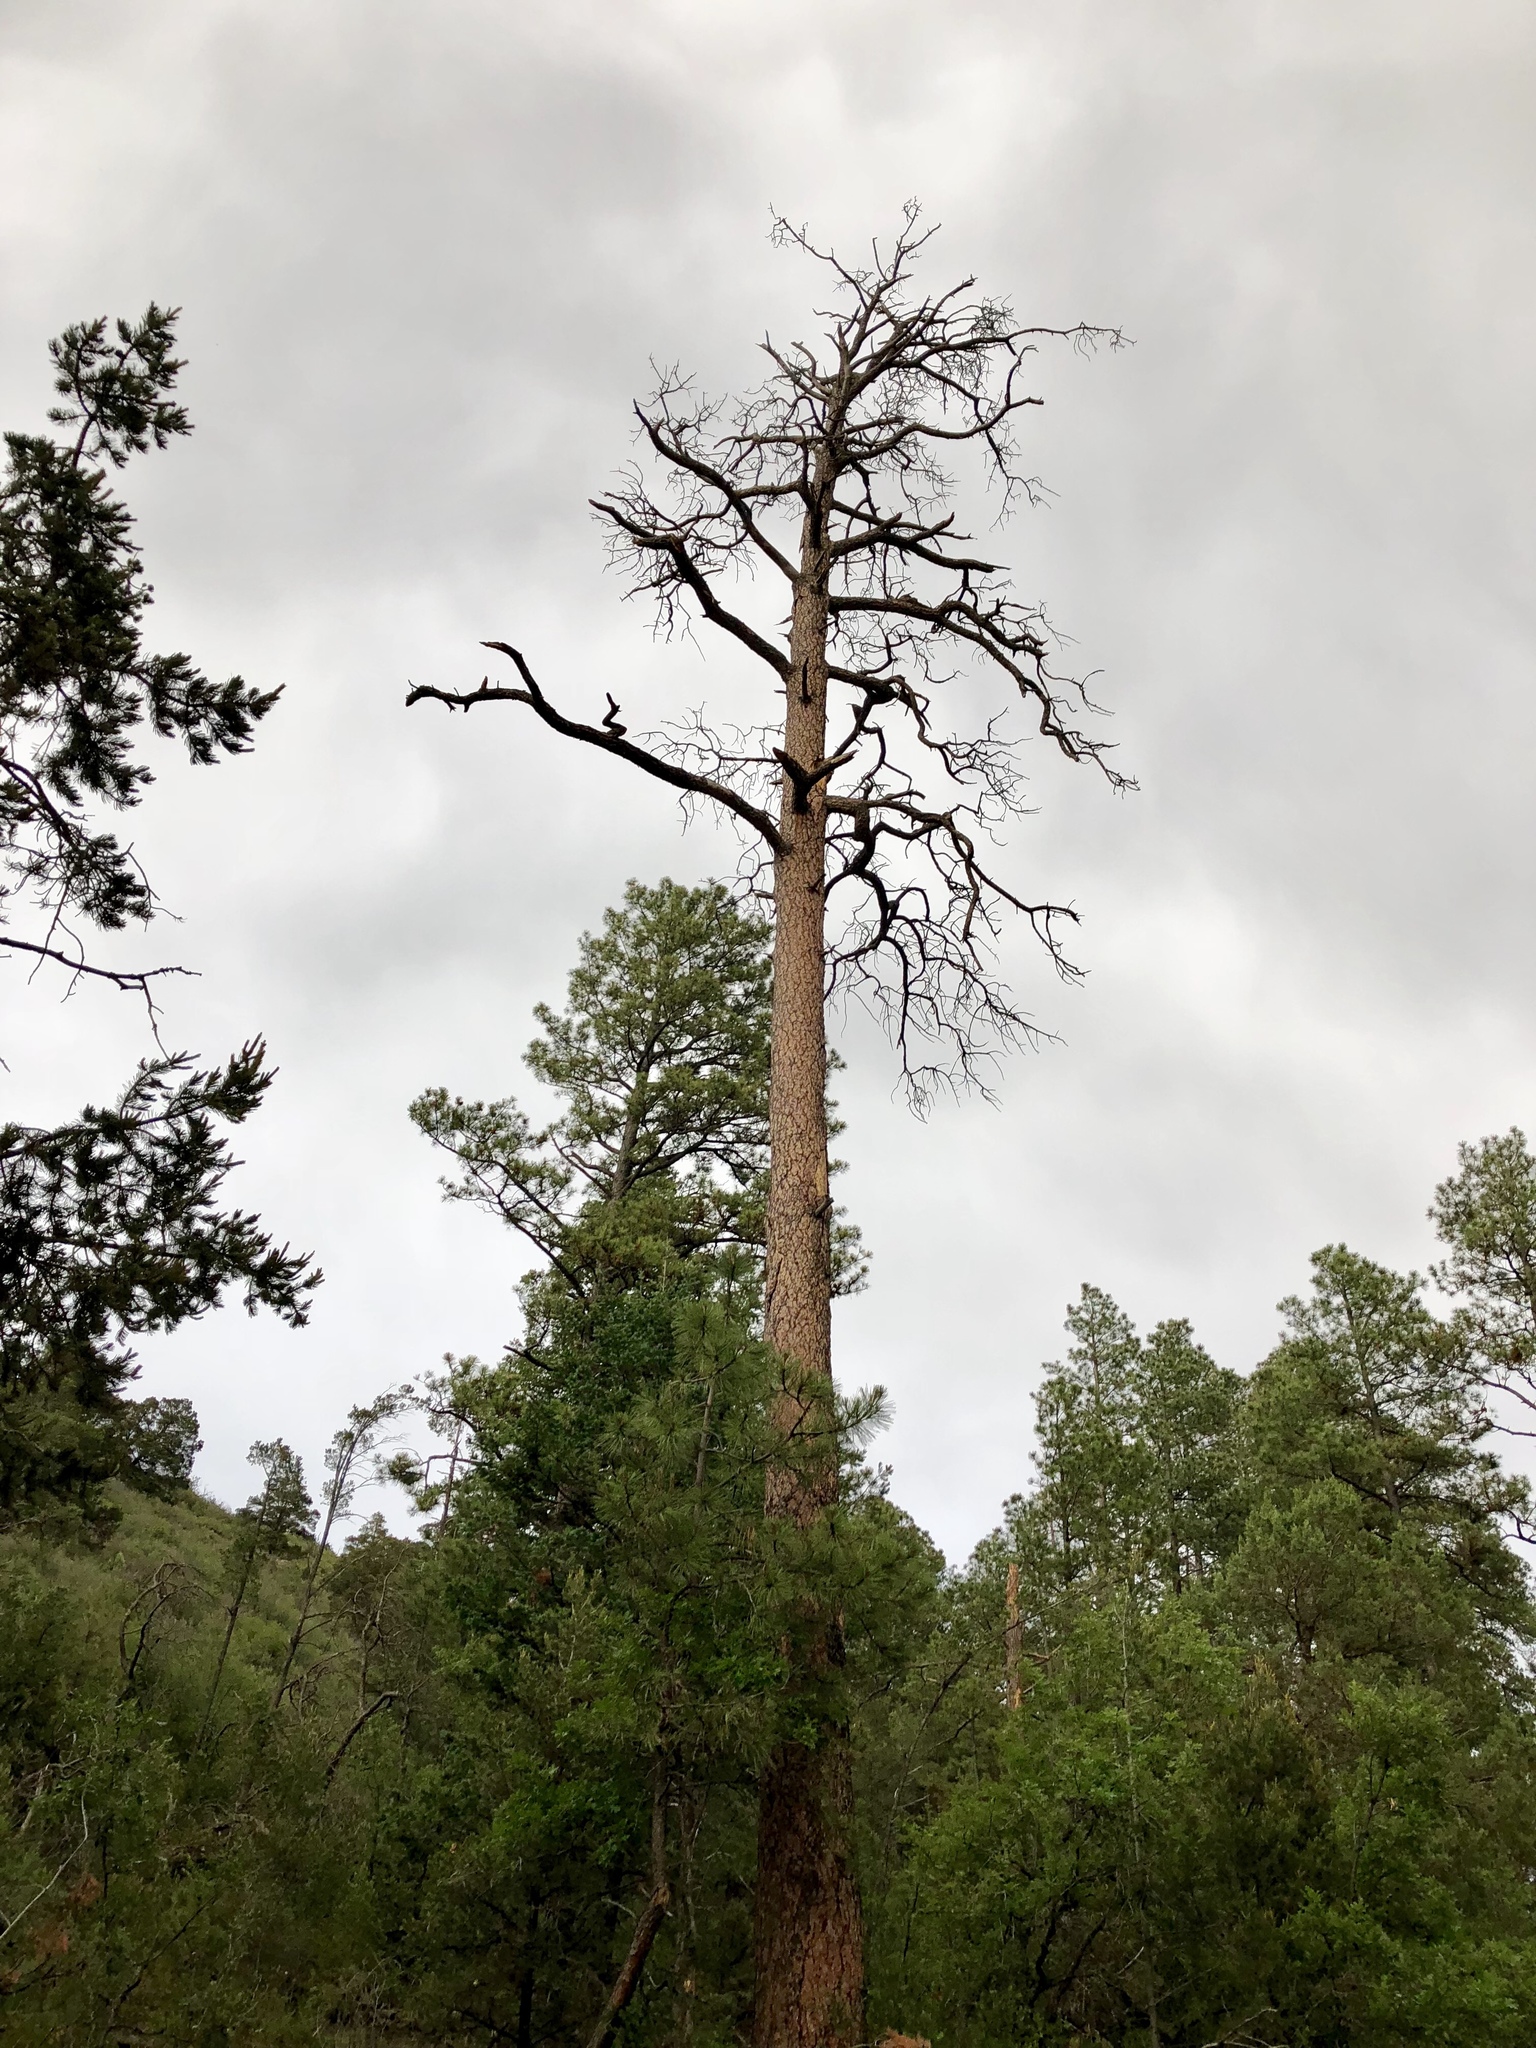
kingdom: Plantae
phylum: Tracheophyta
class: Pinopsida
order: Pinales
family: Pinaceae
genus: Pinus
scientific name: Pinus ponderosa
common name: Western yellow-pine
